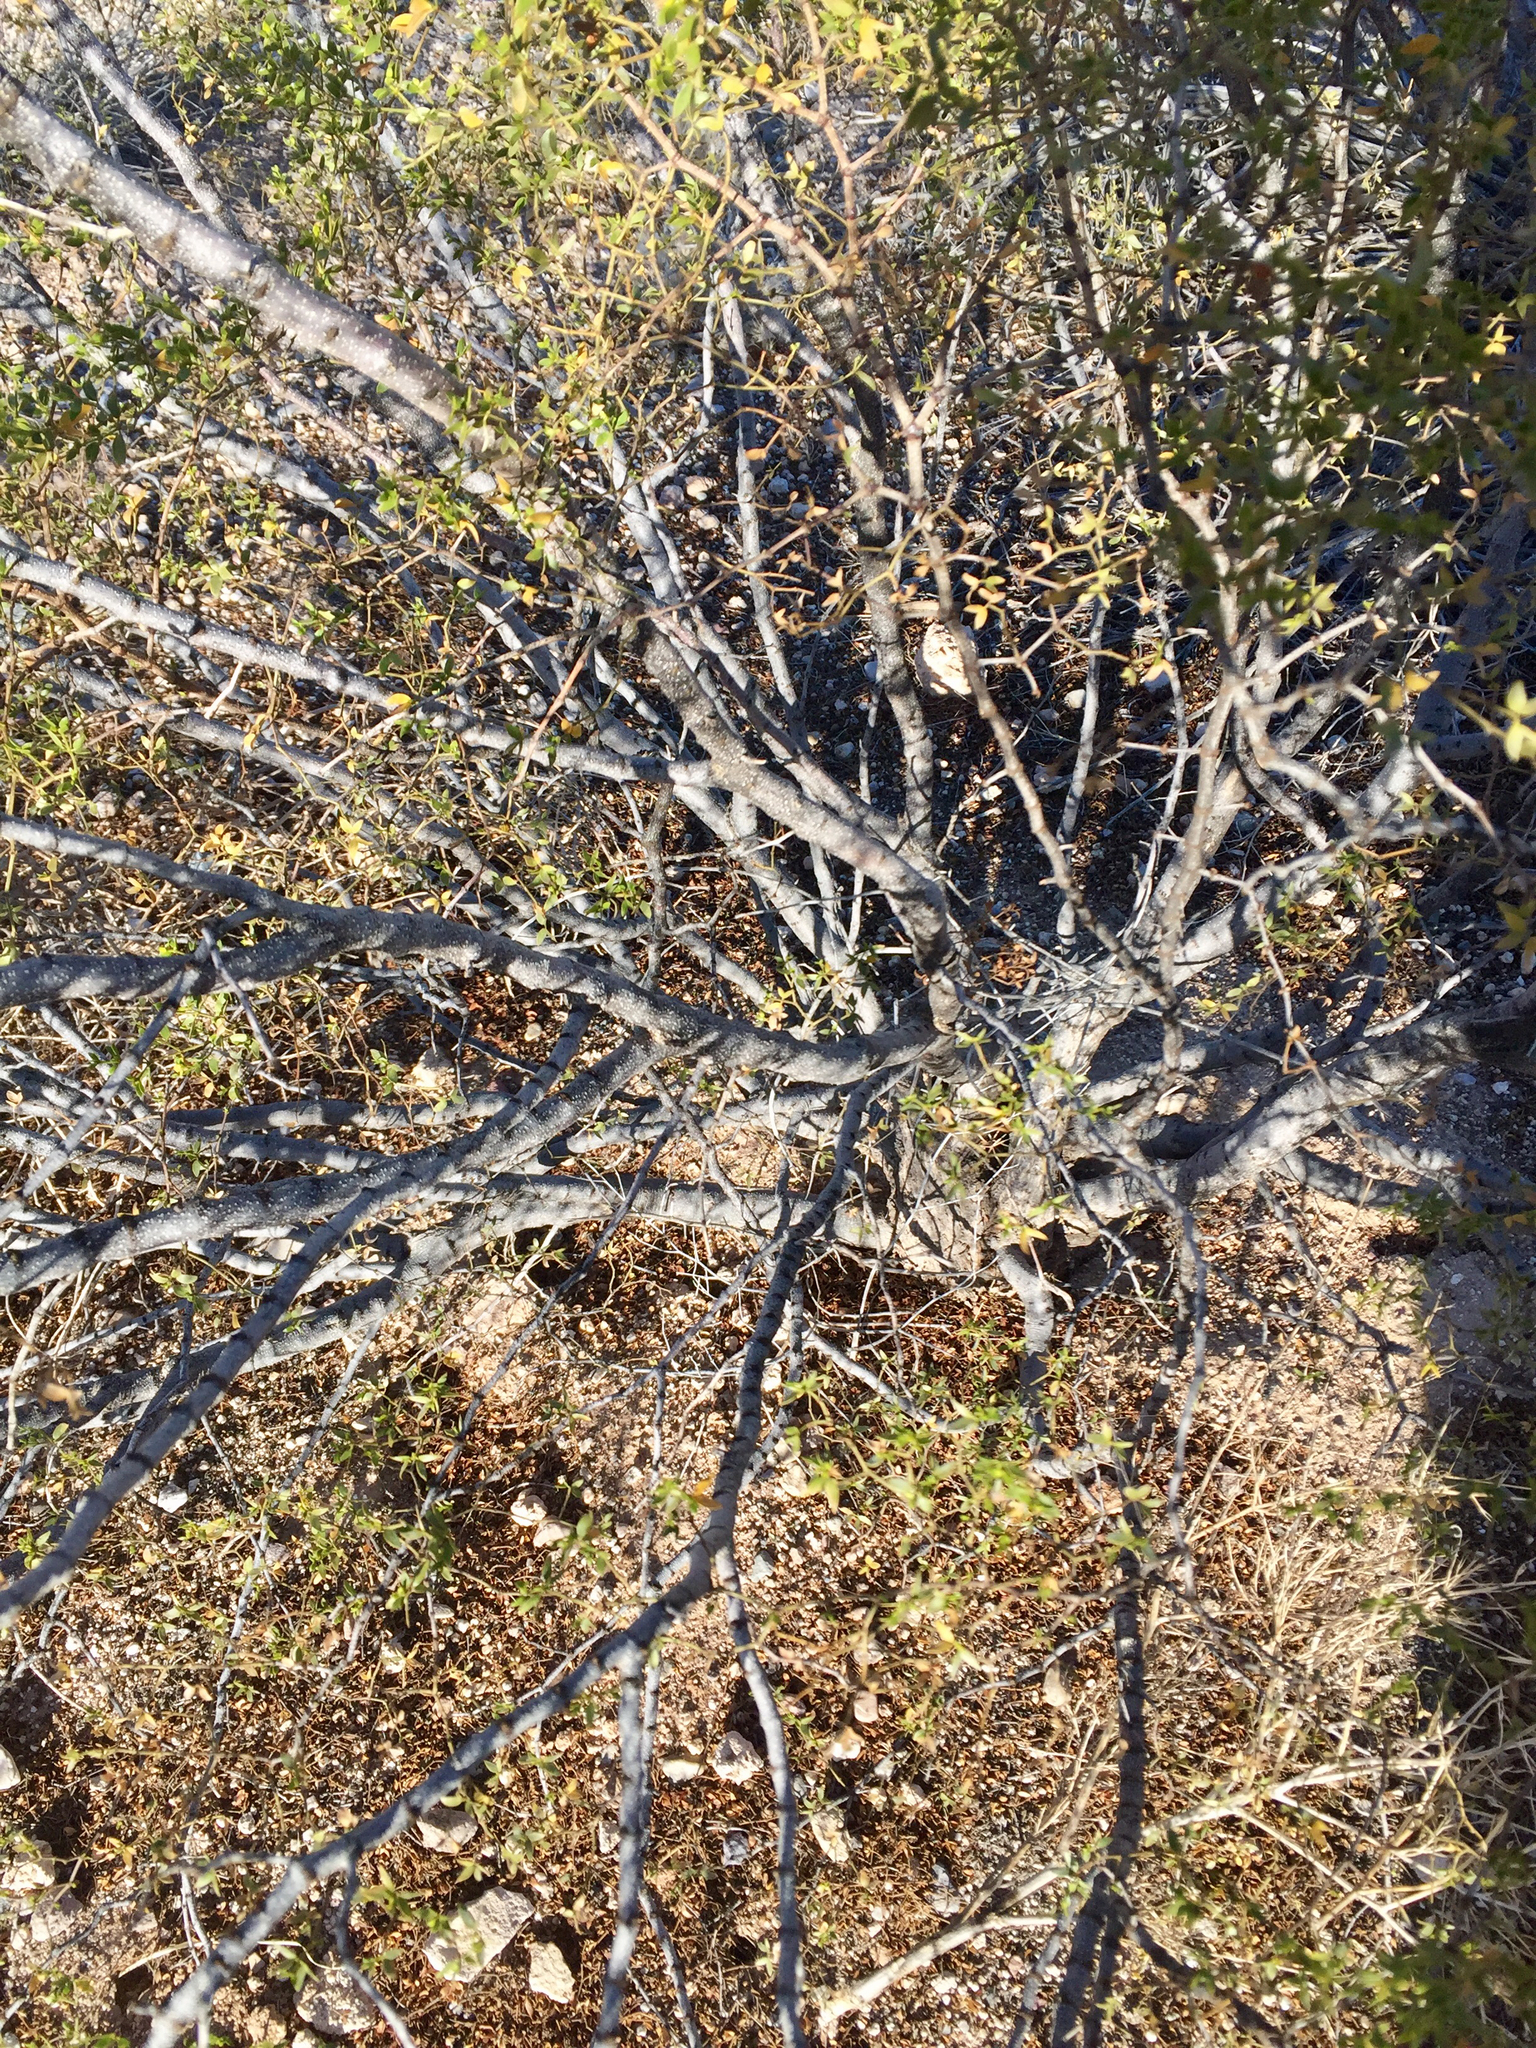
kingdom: Plantae
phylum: Tracheophyta
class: Magnoliopsida
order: Zygophyllales
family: Zygophyllaceae
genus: Larrea
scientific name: Larrea tridentata
